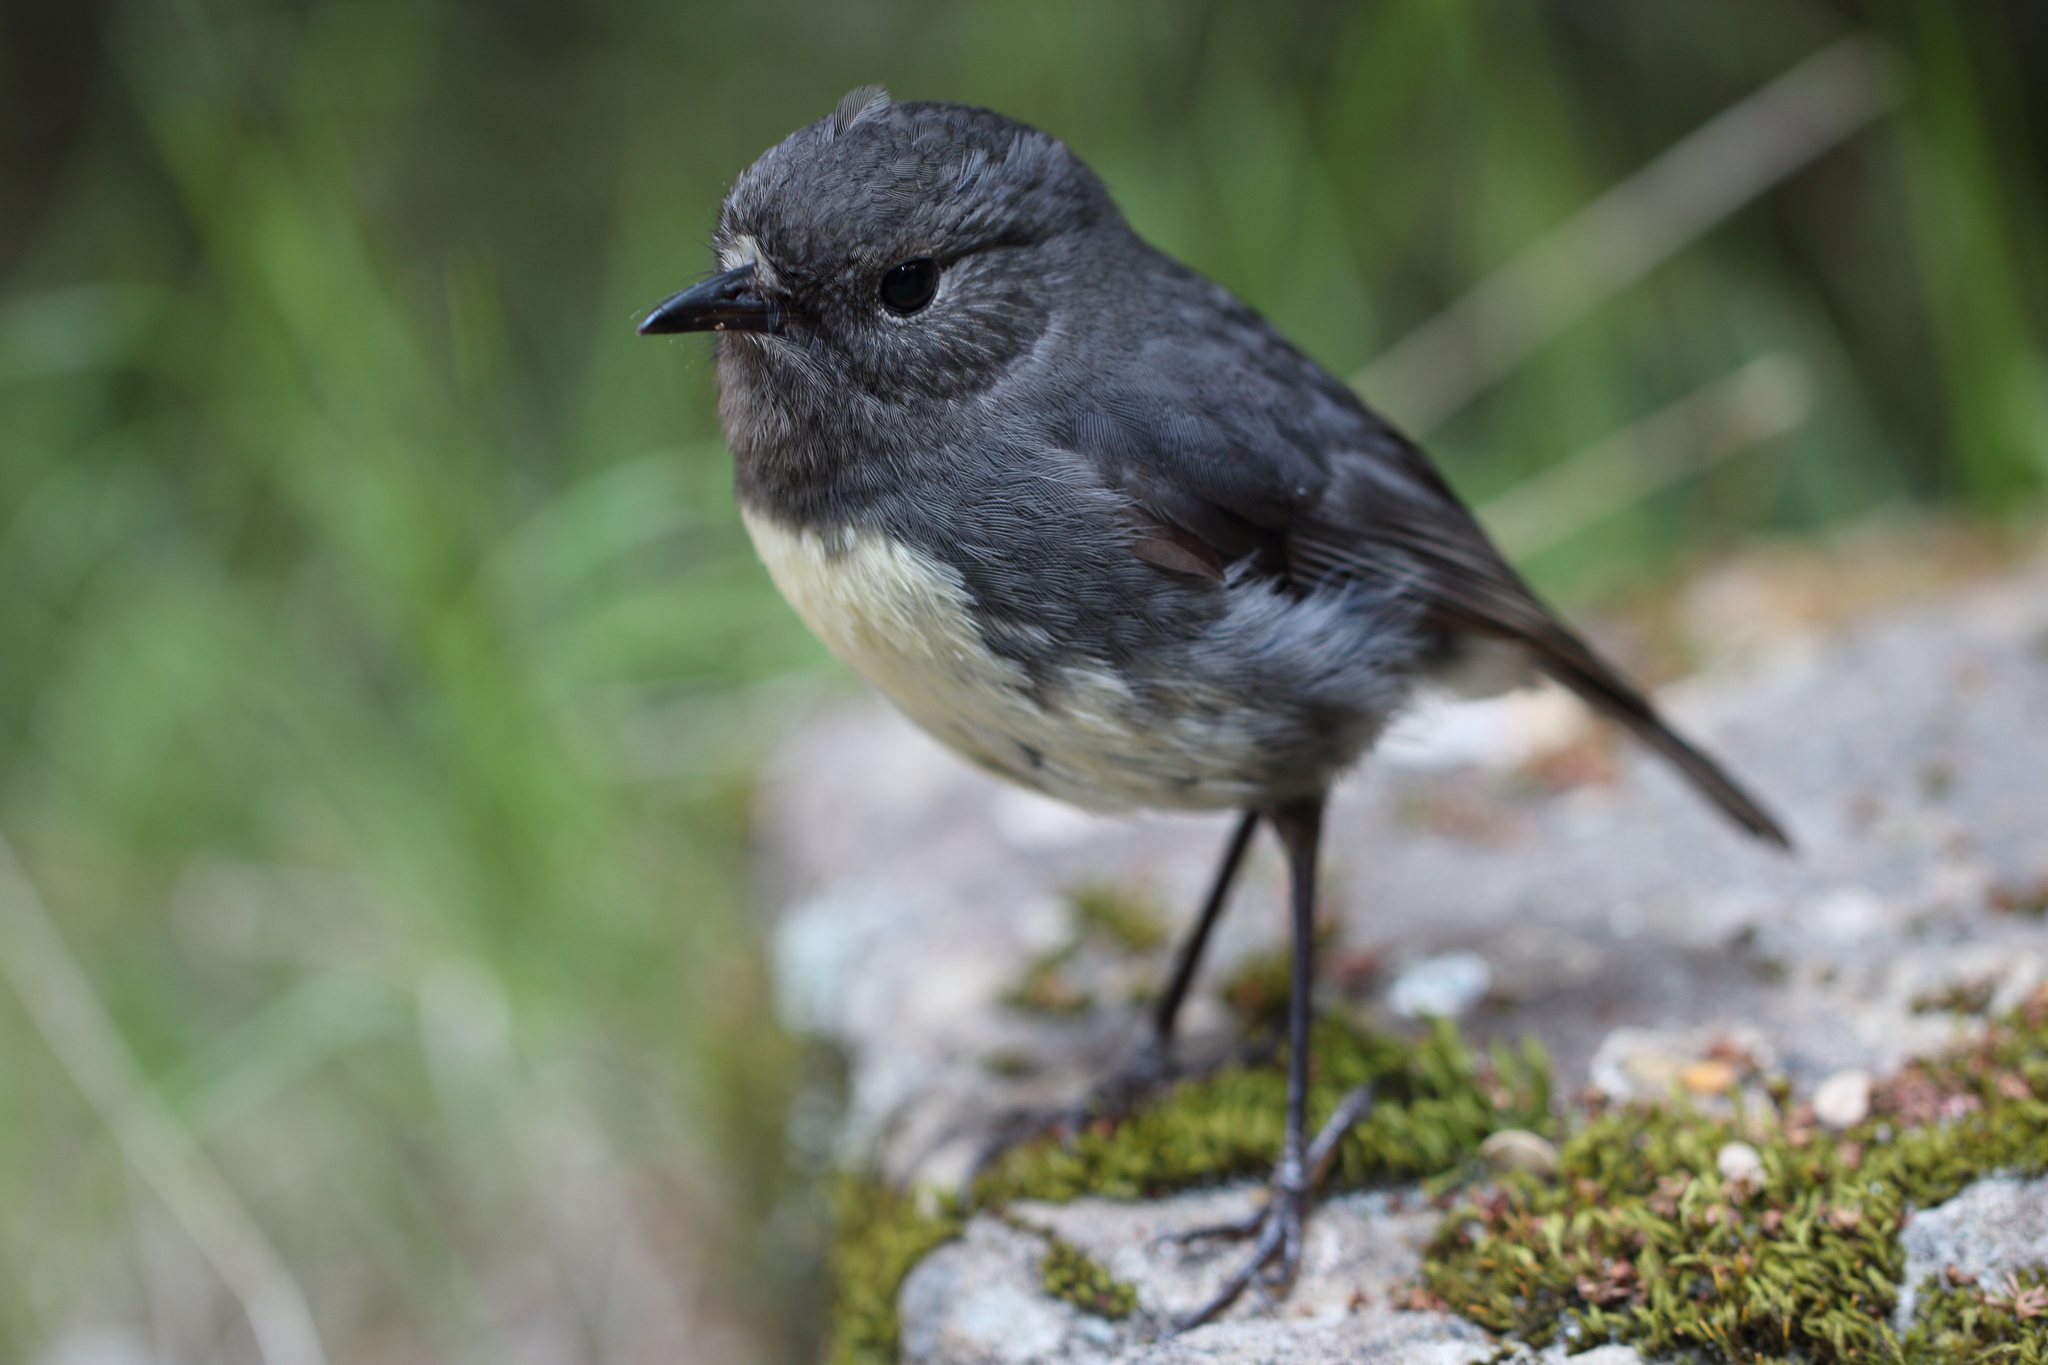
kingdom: Animalia
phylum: Chordata
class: Aves
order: Passeriformes
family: Petroicidae
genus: Petroica
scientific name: Petroica australis
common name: New zealand robin
